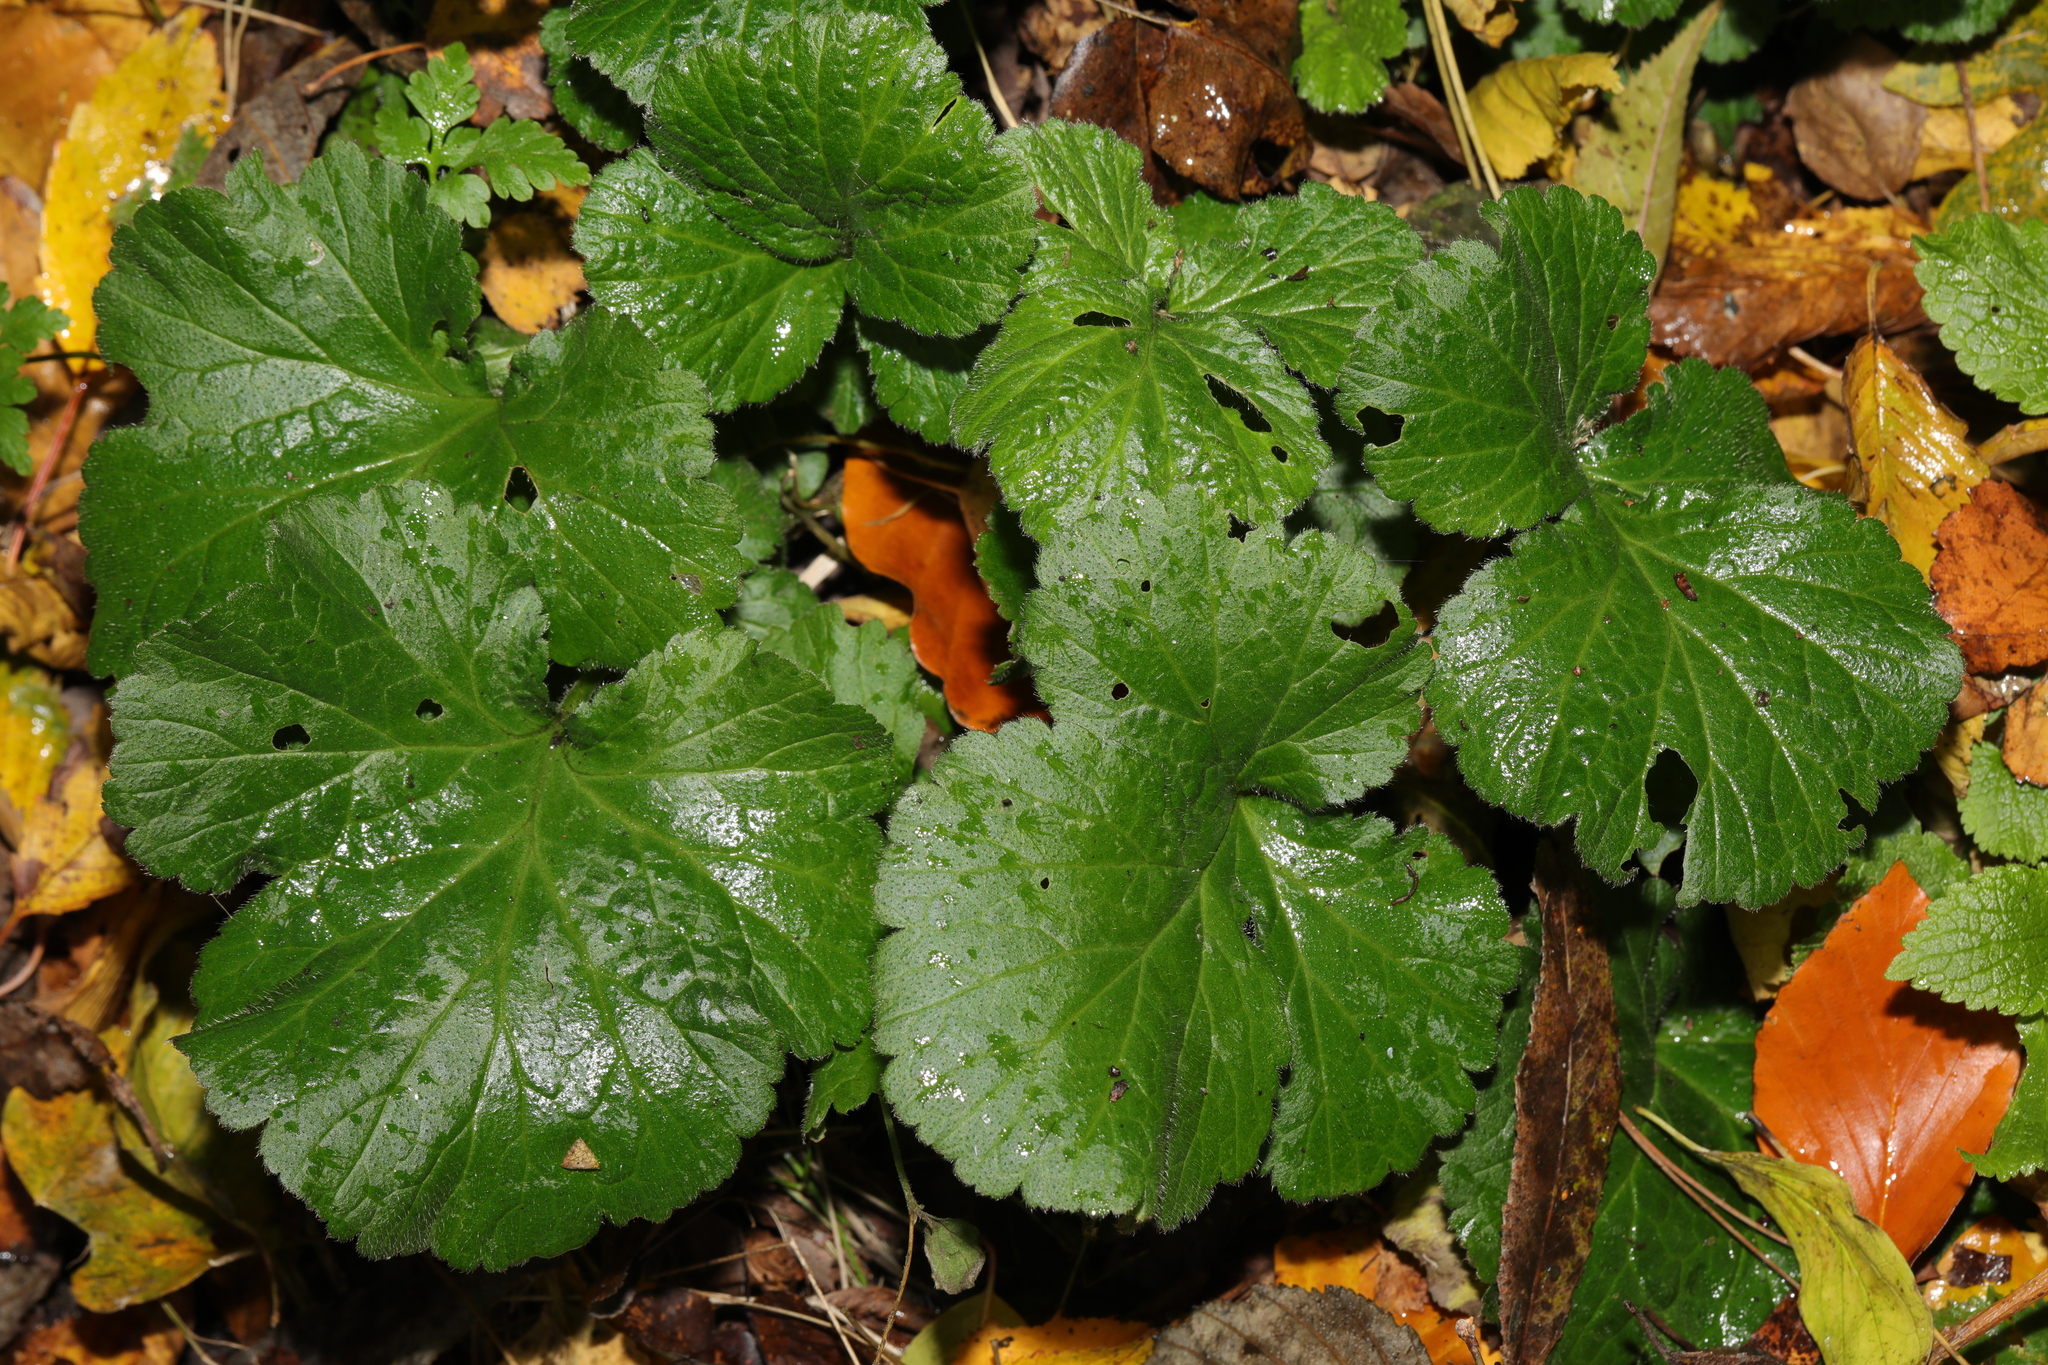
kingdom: Plantae
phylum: Tracheophyta
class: Magnoliopsida
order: Rosales
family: Rosaceae
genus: Geum
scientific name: Geum urbanum
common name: Wood avens
